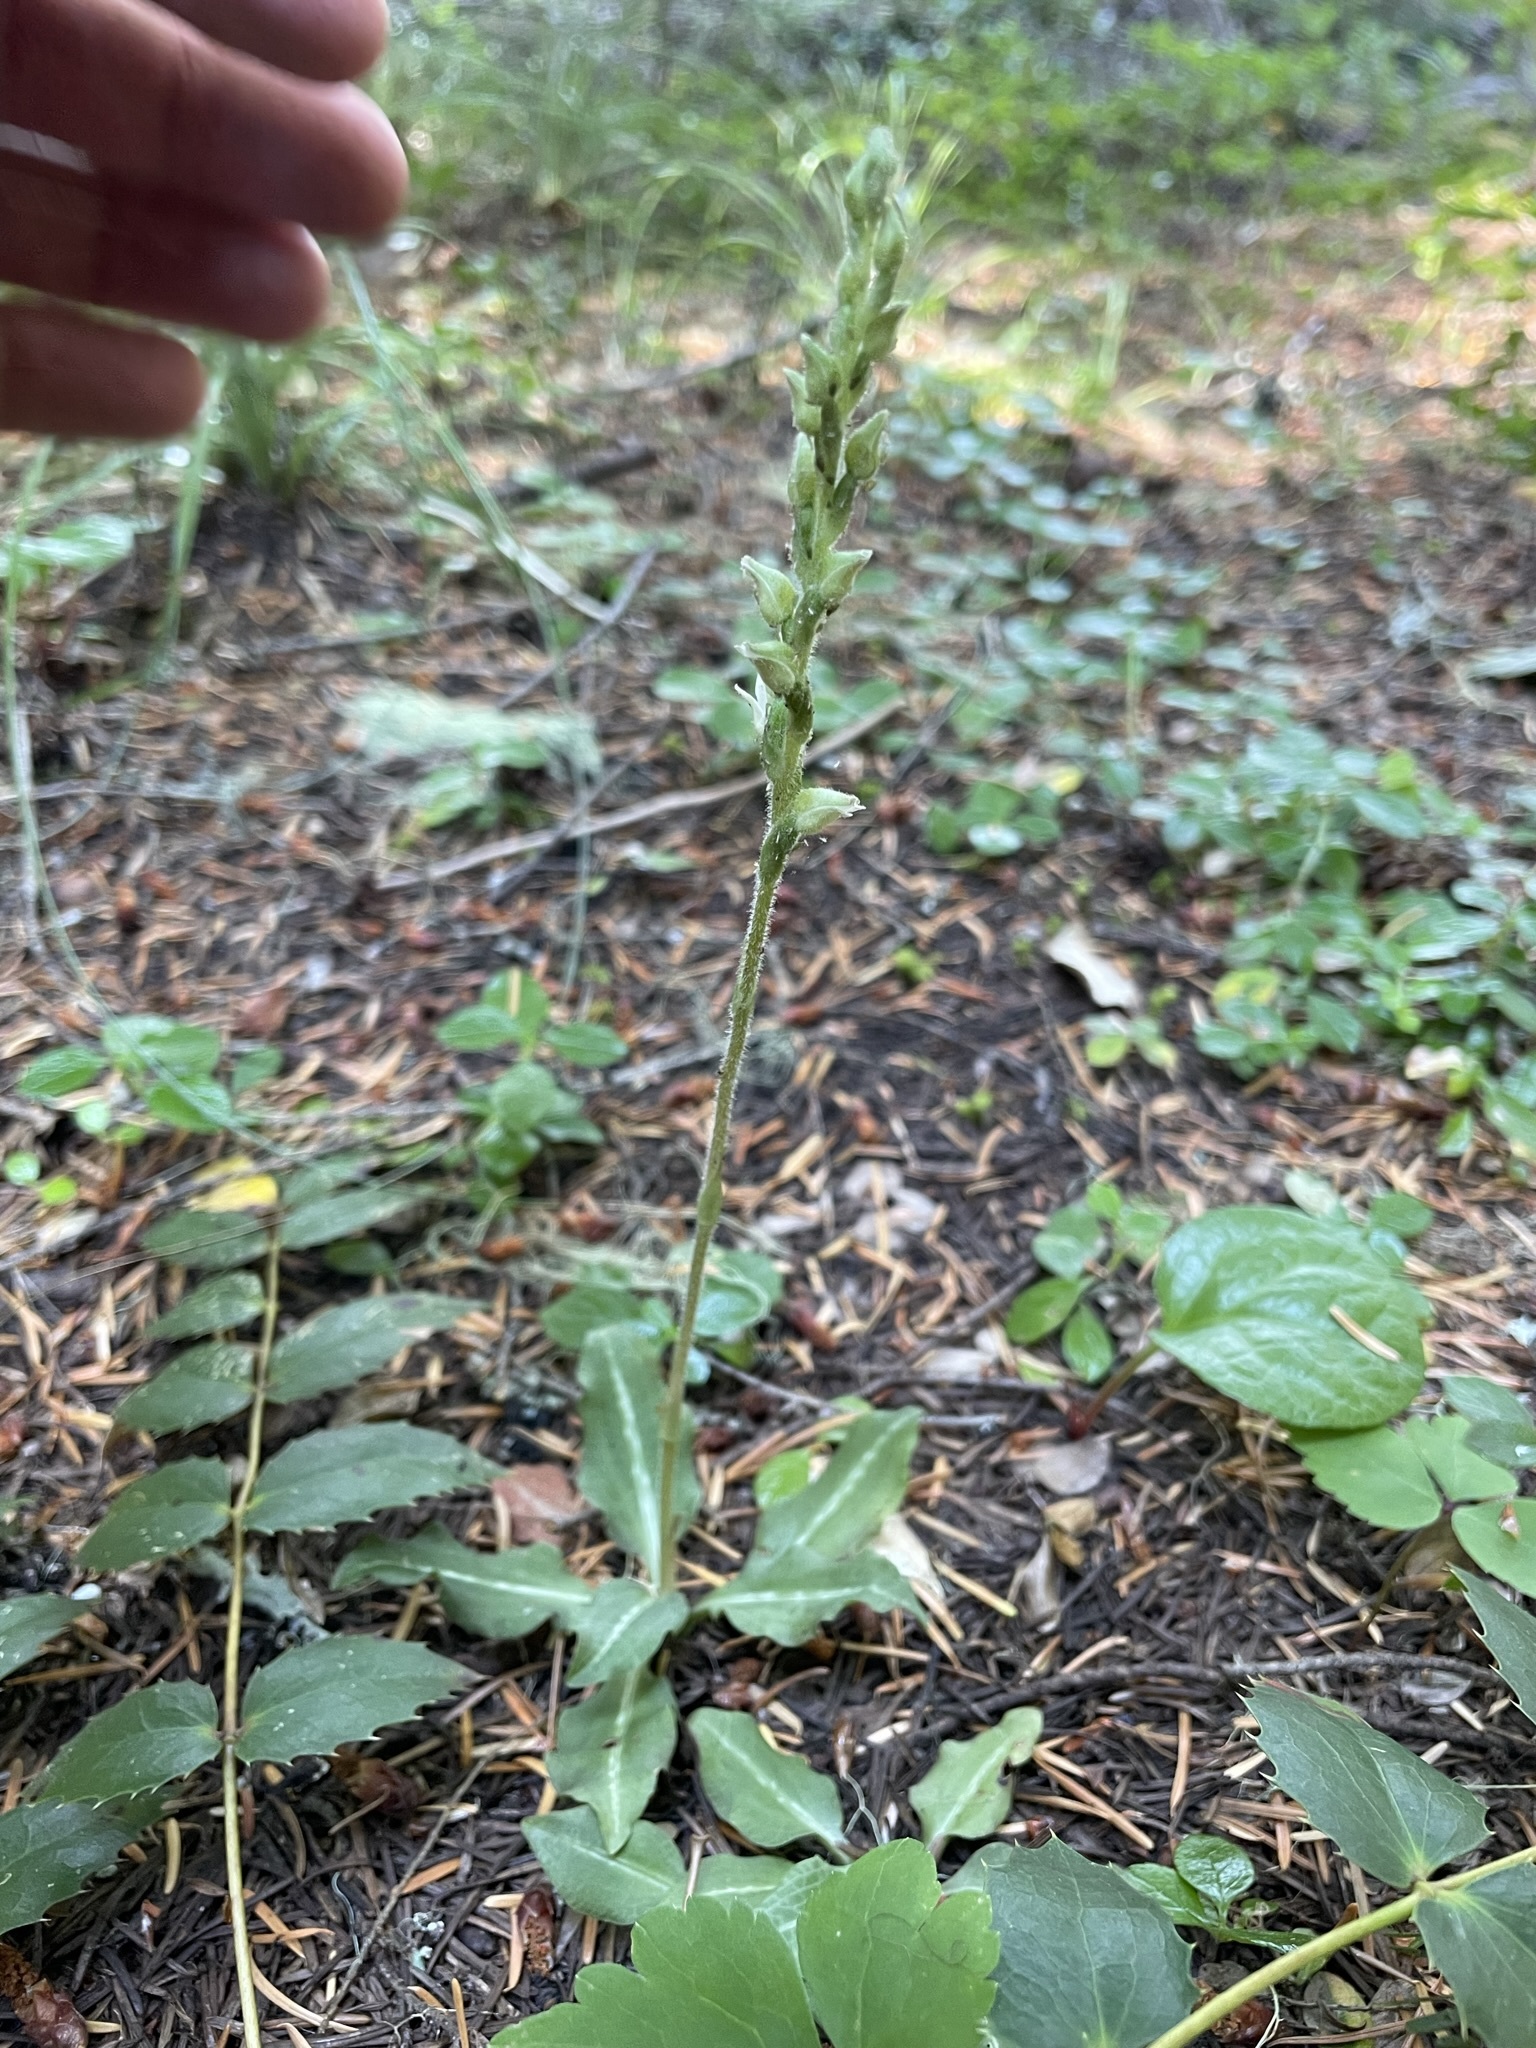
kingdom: Plantae
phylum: Tracheophyta
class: Liliopsida
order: Asparagales
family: Orchidaceae
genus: Goodyera
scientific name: Goodyera oblongifolia
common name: Giant rattlesnake-plantain
